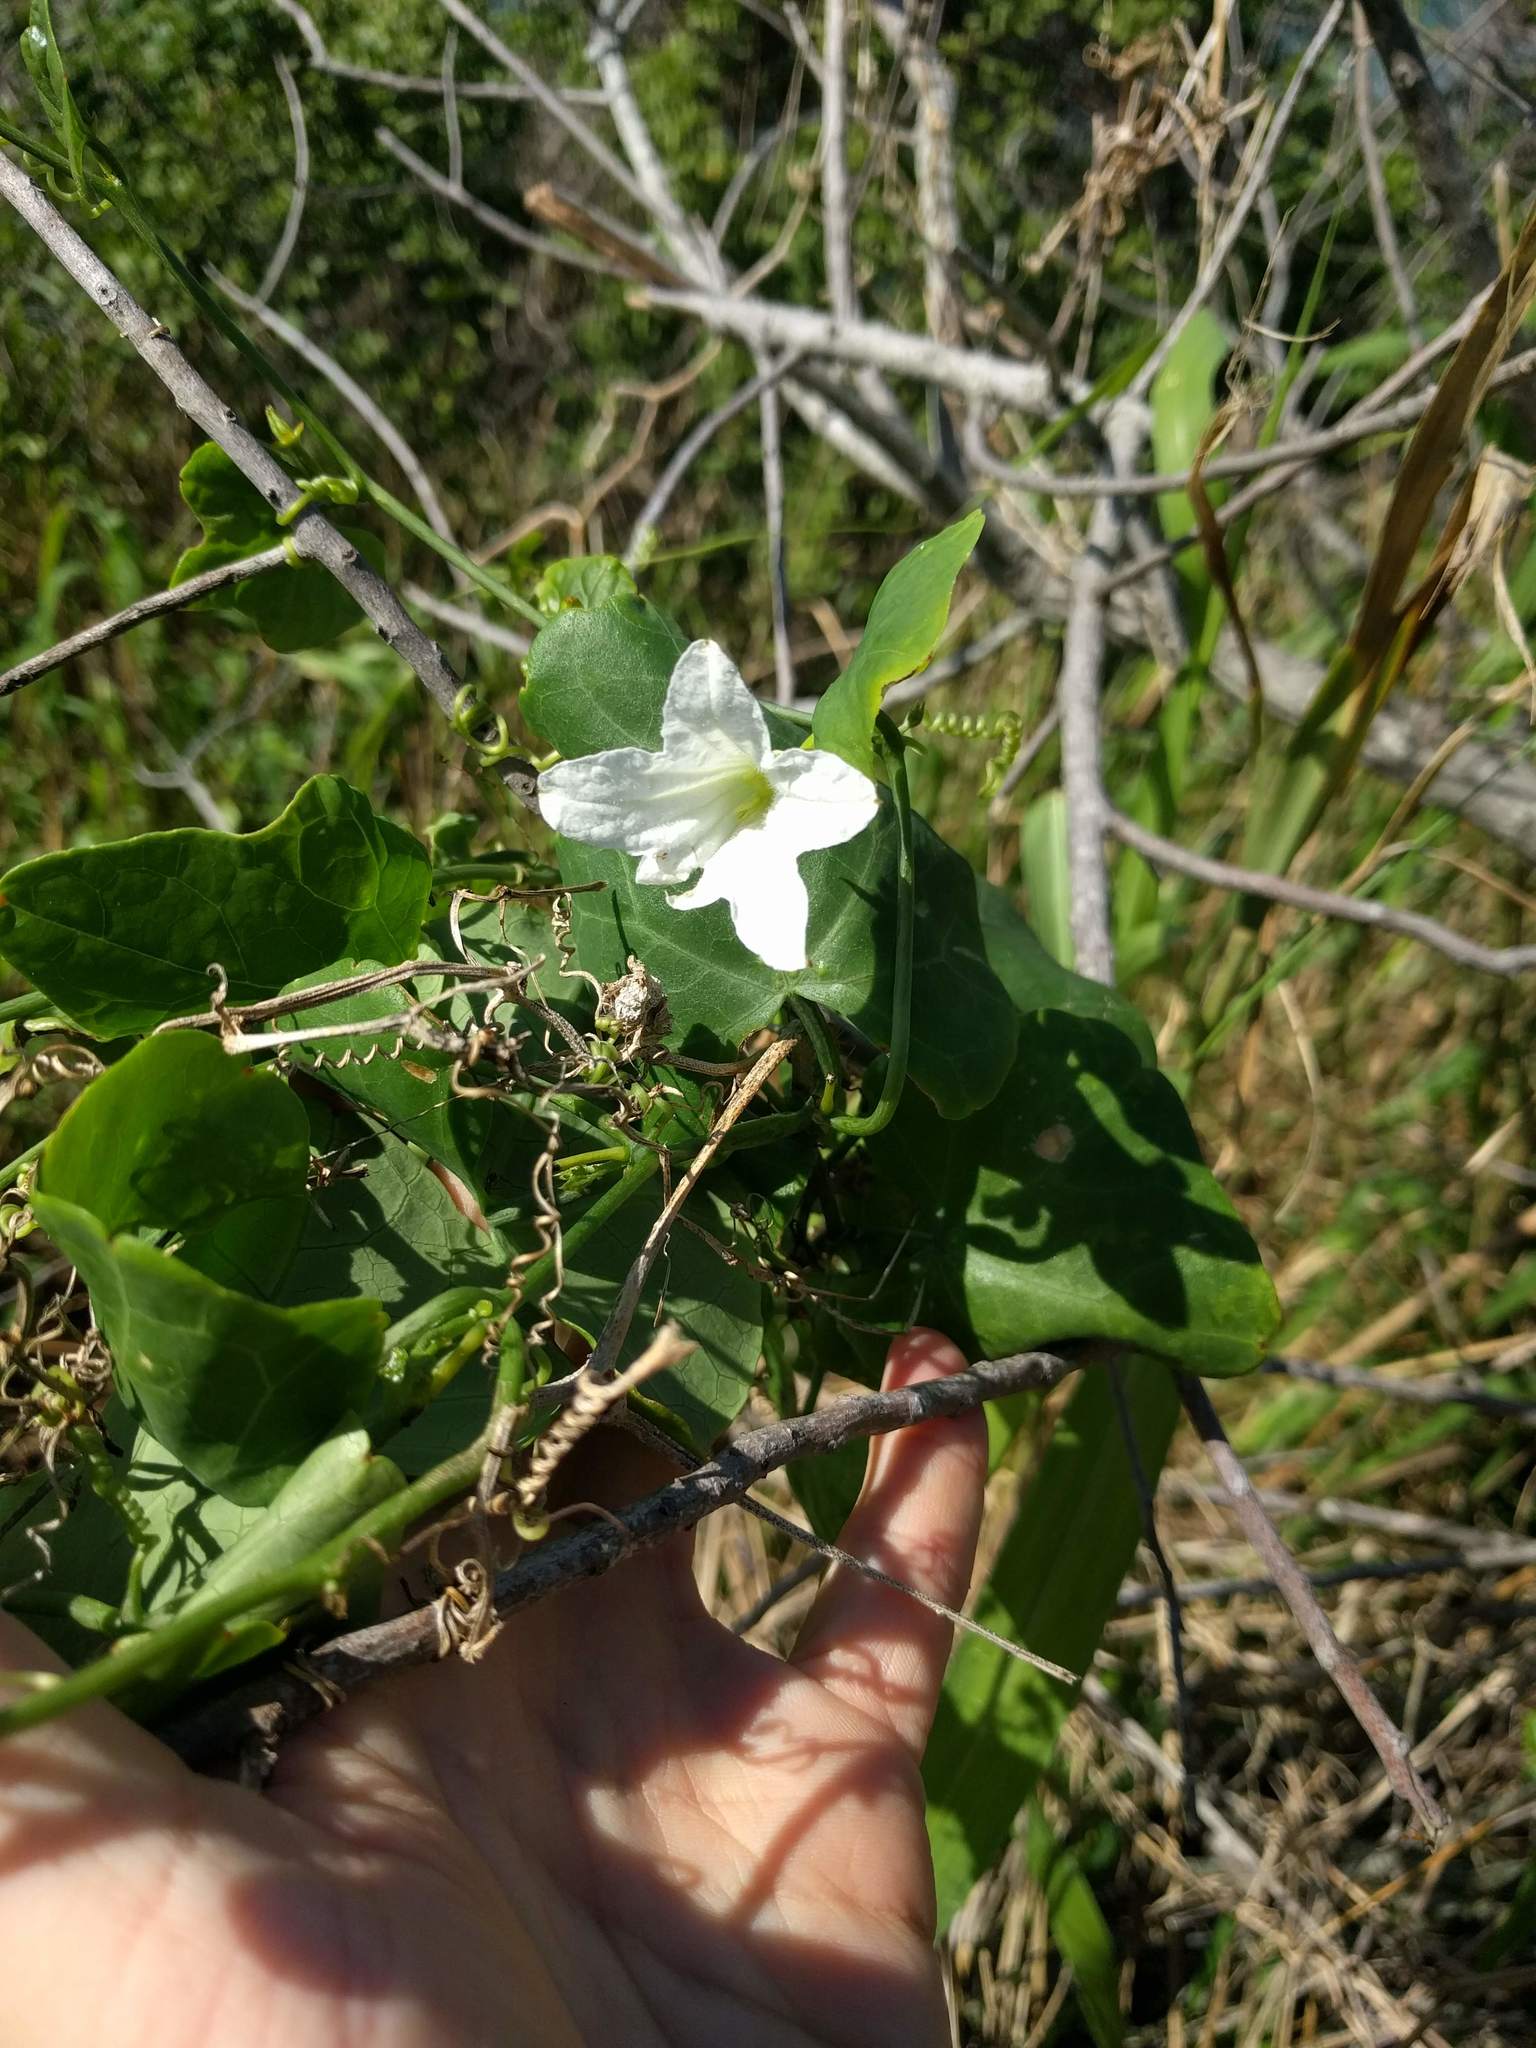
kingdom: Plantae
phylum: Tracheophyta
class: Magnoliopsida
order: Cucurbitales
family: Cucurbitaceae
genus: Coccinia
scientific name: Coccinia grandis
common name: Ivy gourd
